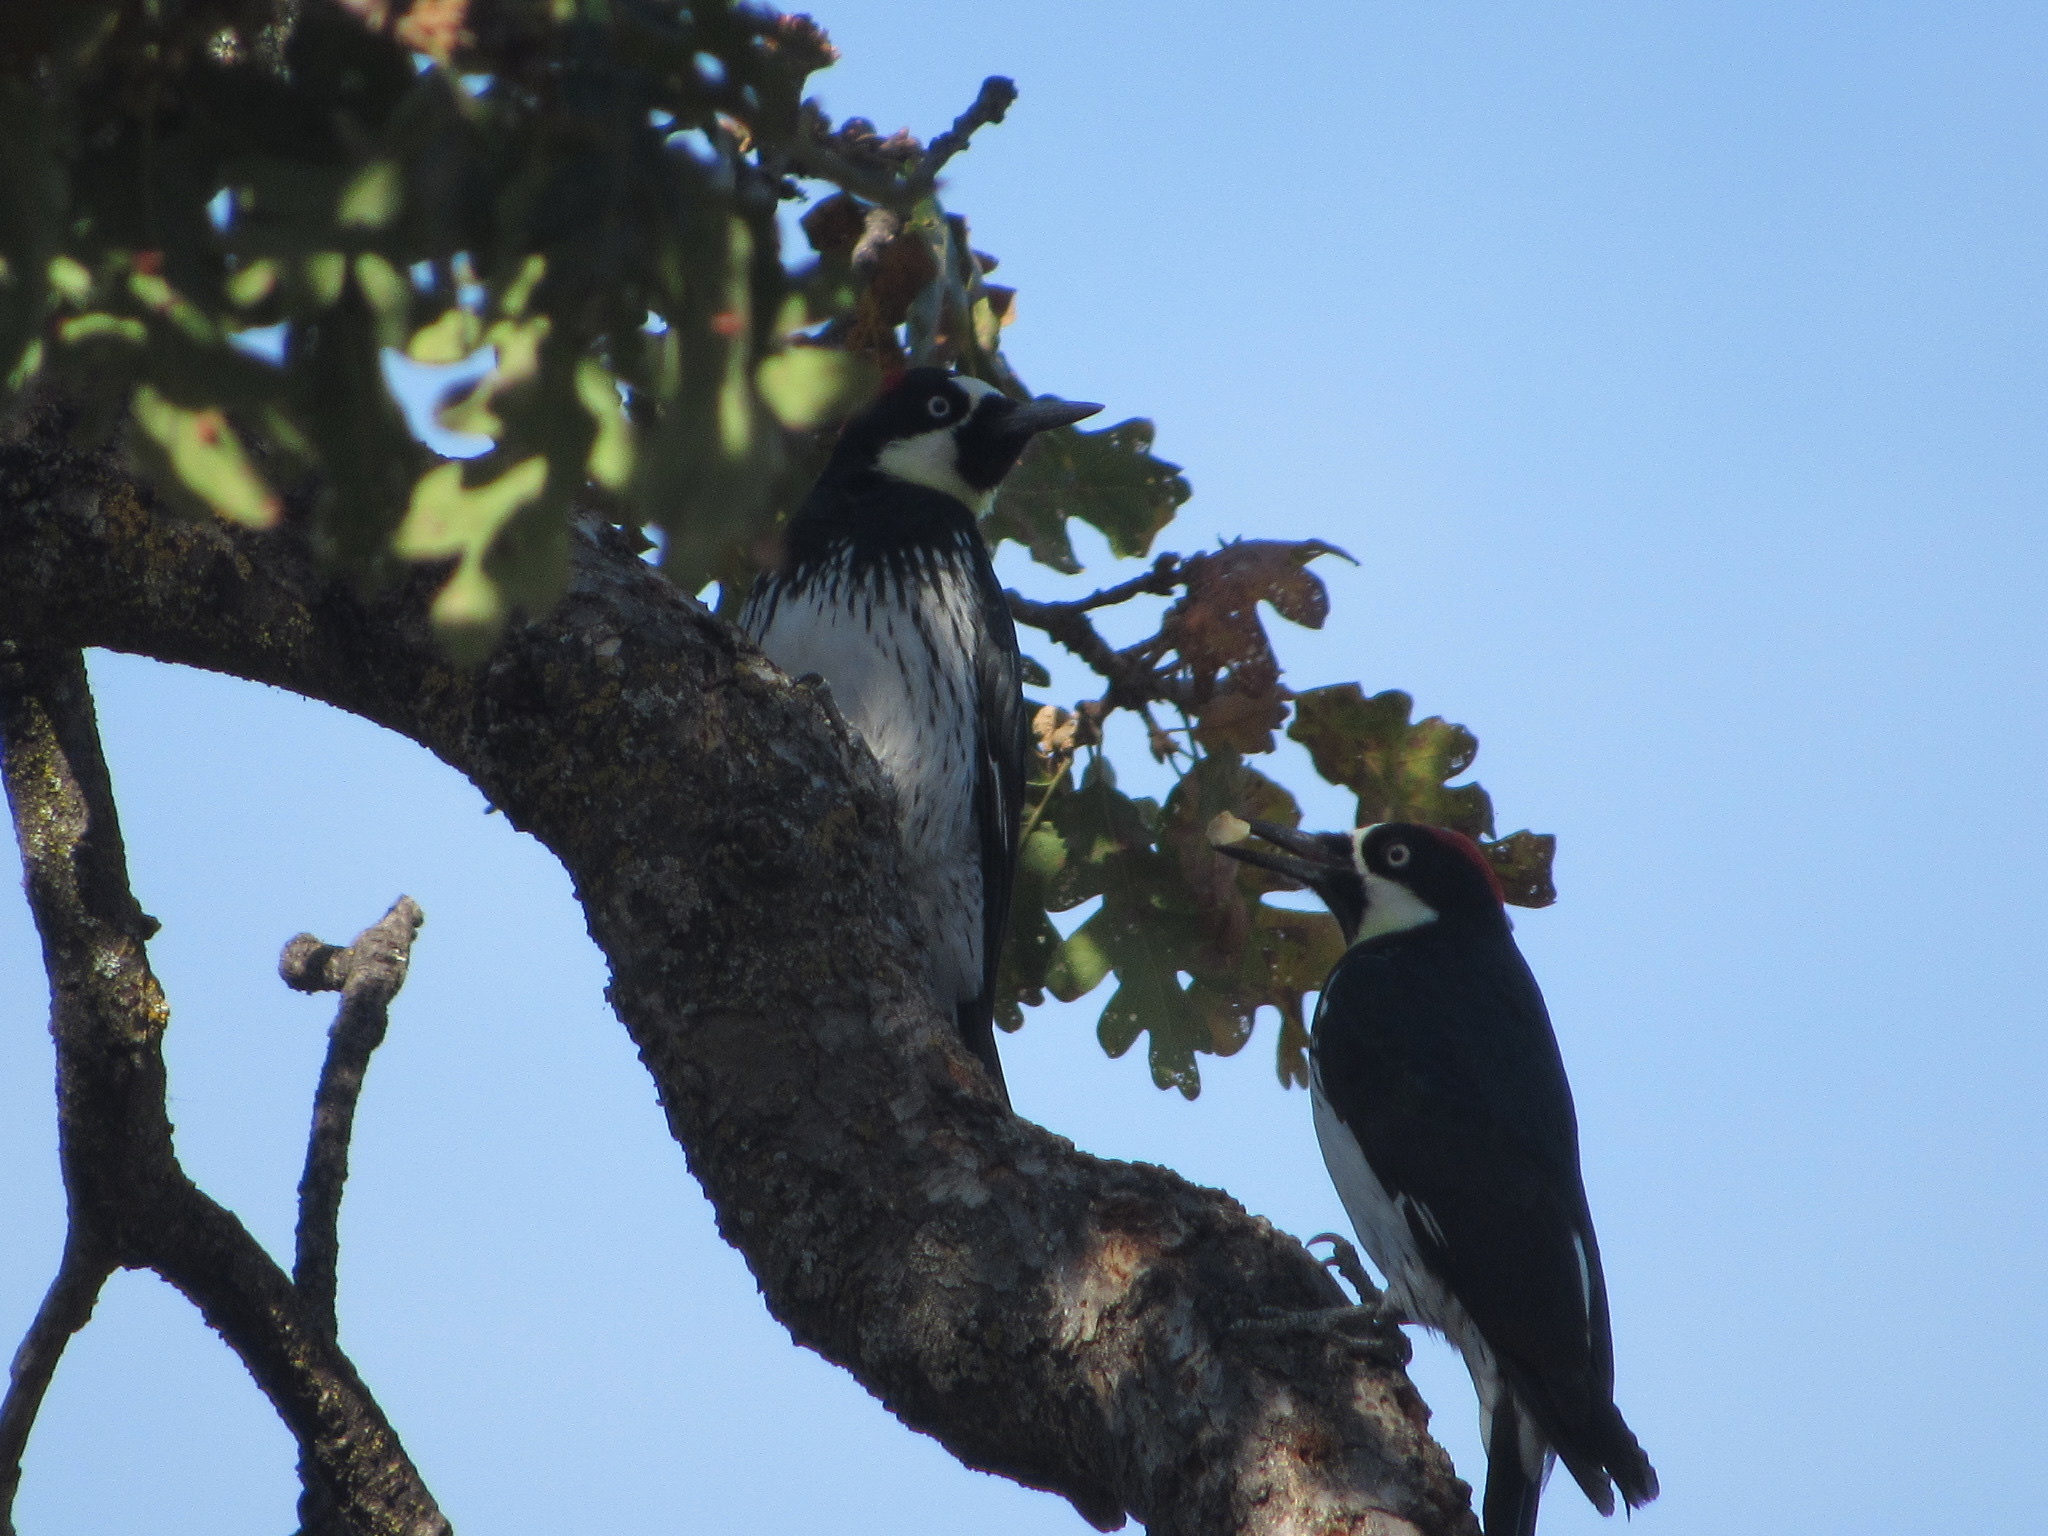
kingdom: Animalia
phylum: Chordata
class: Aves
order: Piciformes
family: Picidae
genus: Melanerpes
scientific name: Melanerpes formicivorus
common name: Acorn woodpecker
